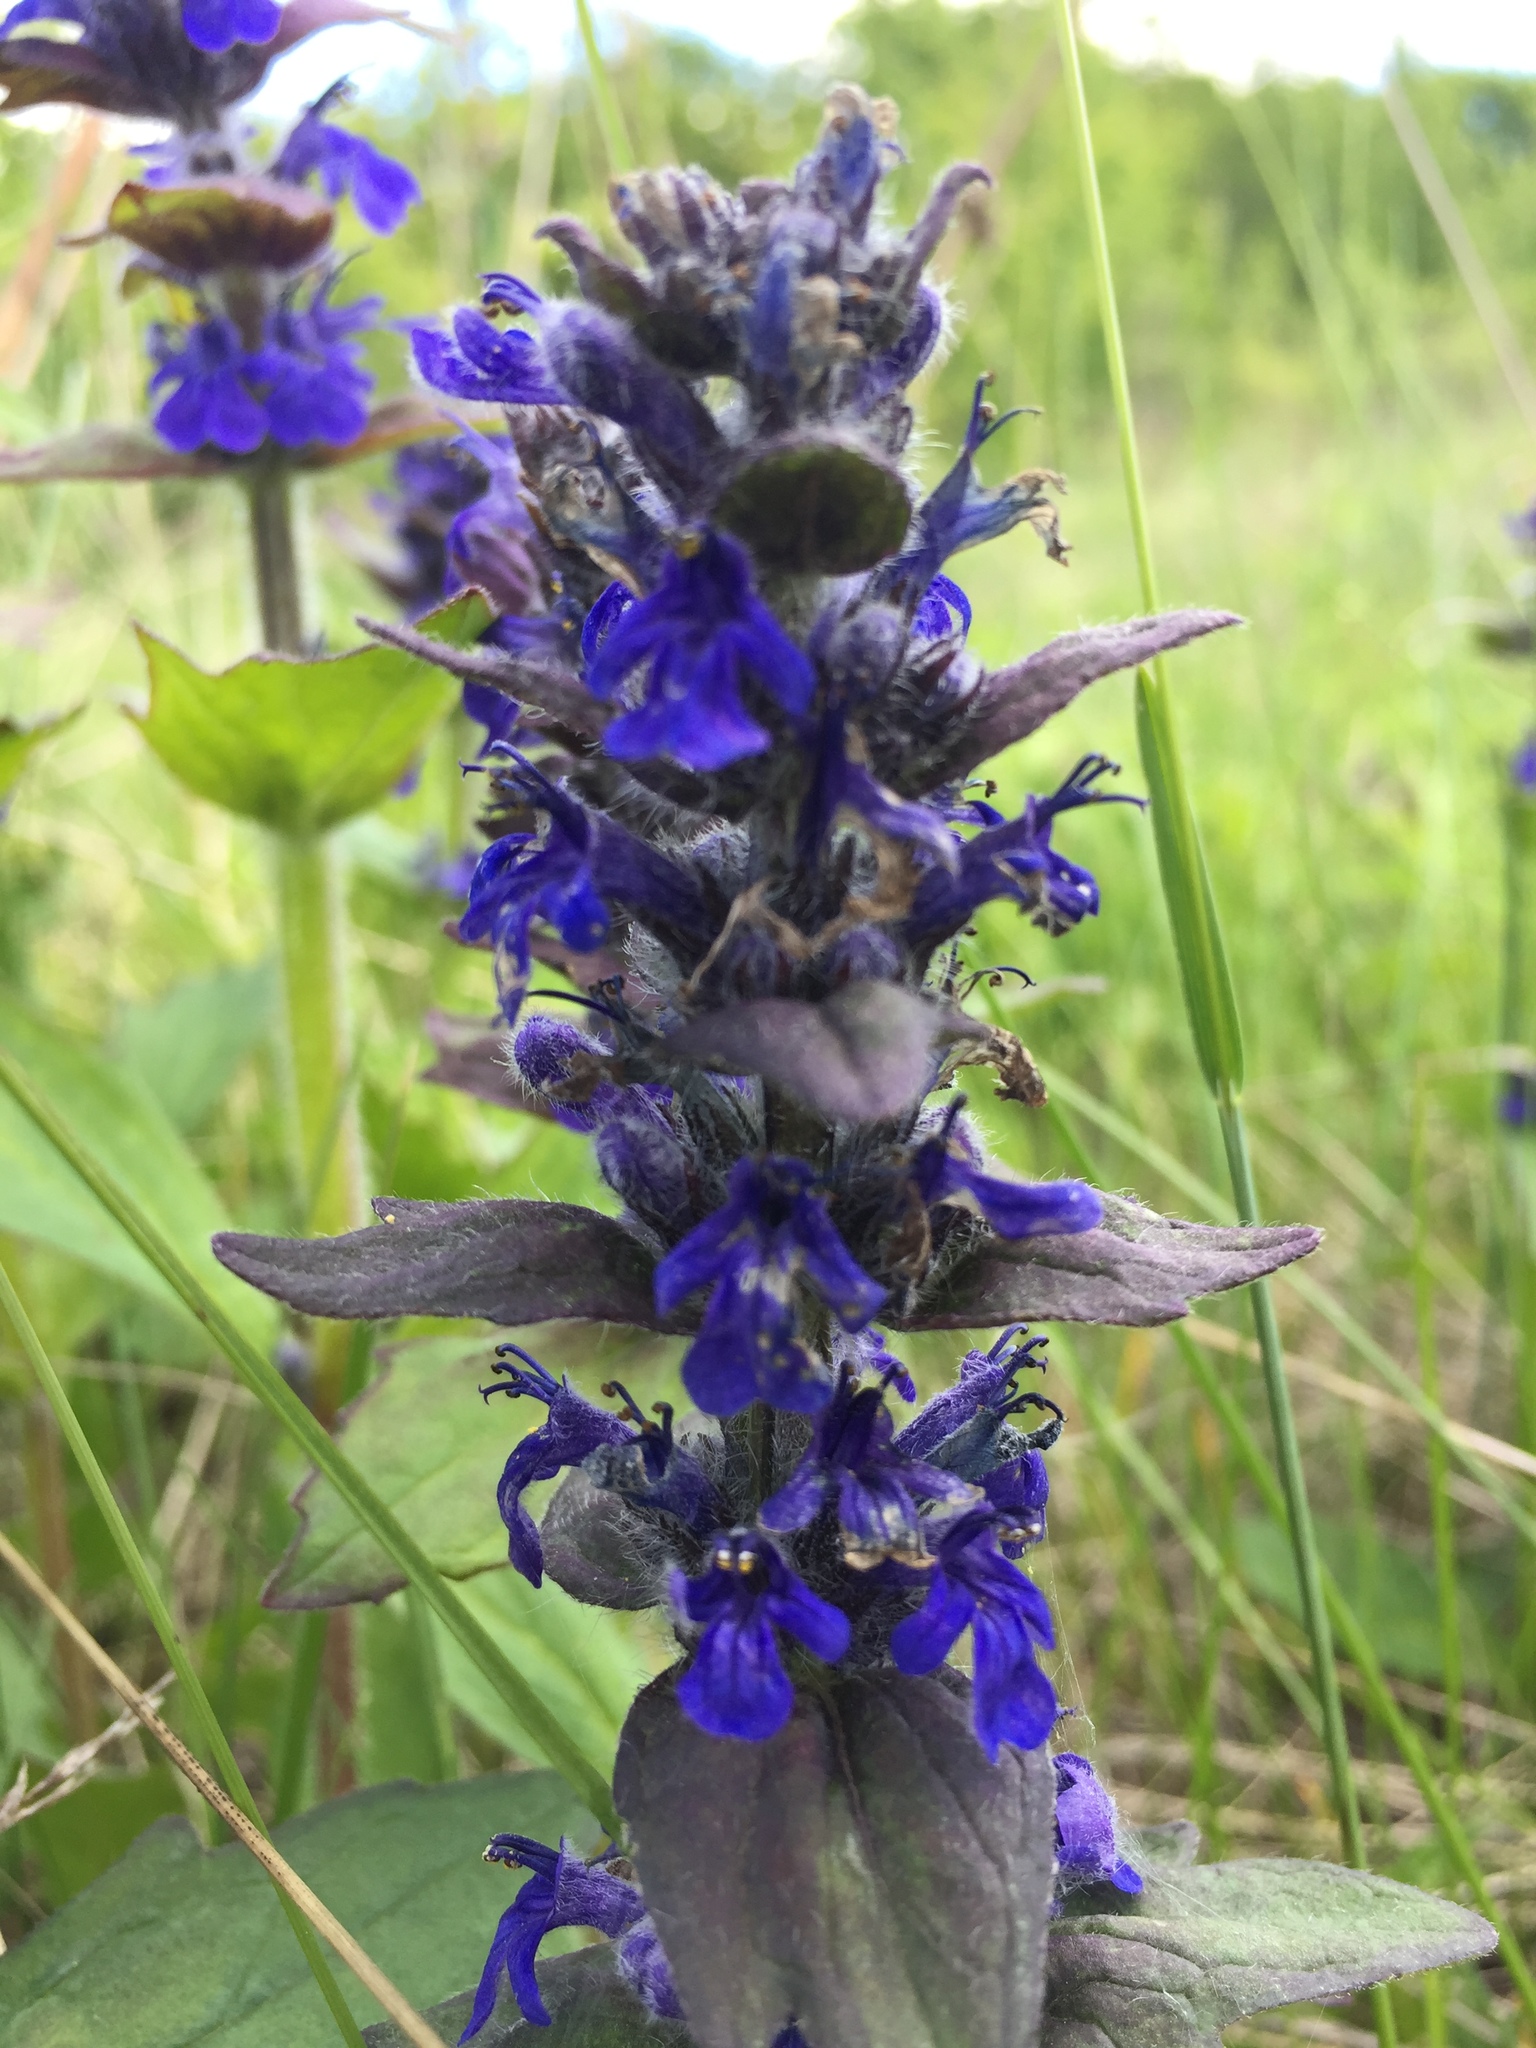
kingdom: Plantae
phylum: Tracheophyta
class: Magnoliopsida
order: Lamiales
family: Lamiaceae
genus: Ajuga
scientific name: Ajuga genevensis
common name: Blue bugle
